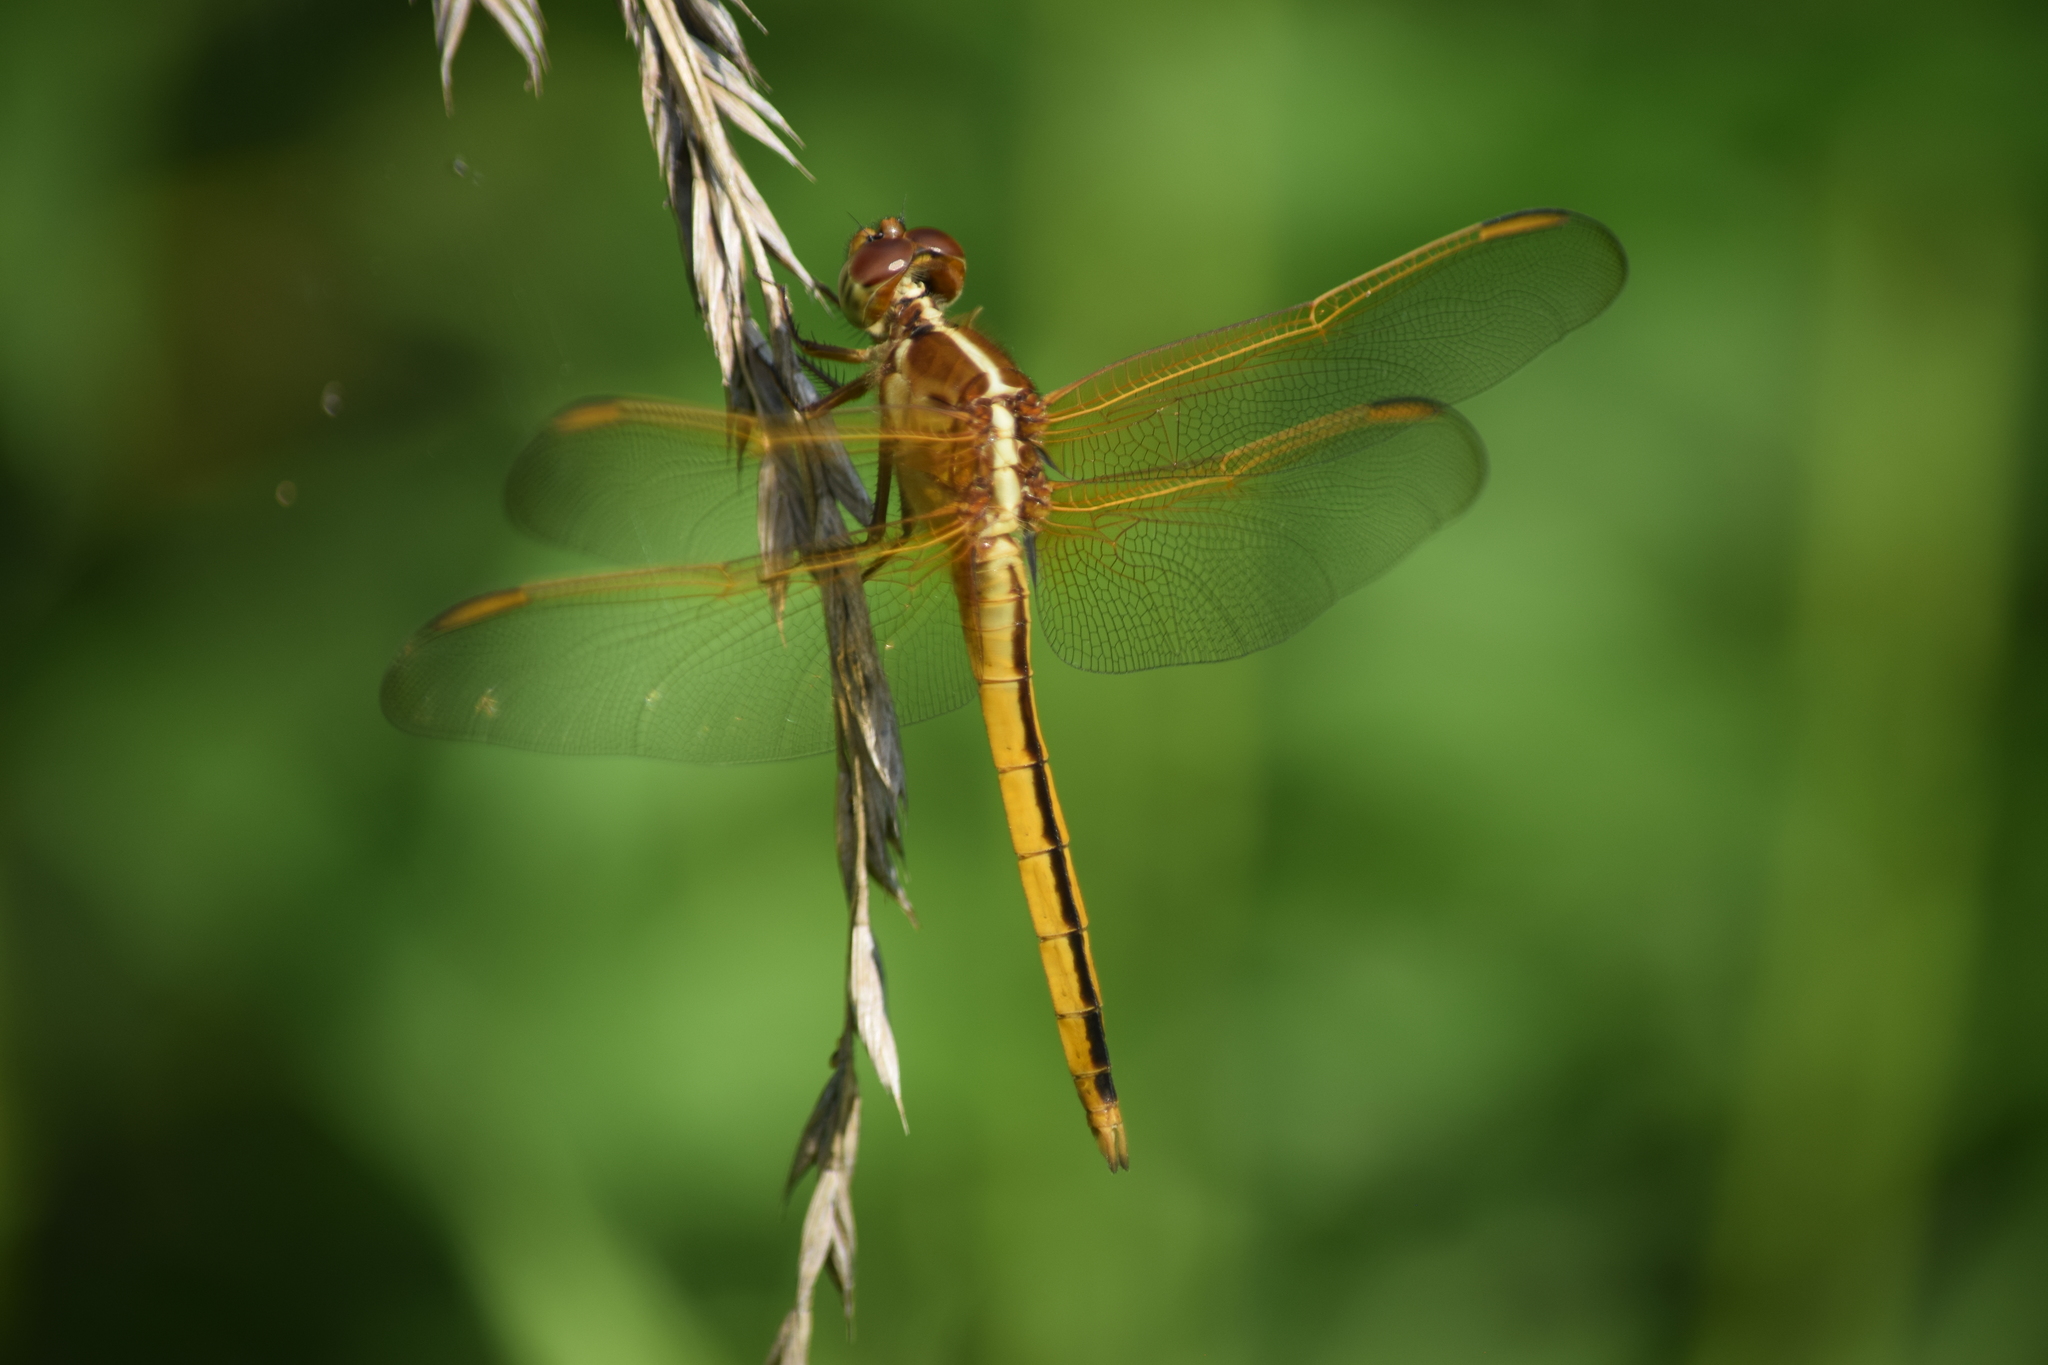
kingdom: Animalia
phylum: Arthropoda
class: Insecta
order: Odonata
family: Libellulidae
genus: Libellula
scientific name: Libellula needhami
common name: Needham's skimmer
